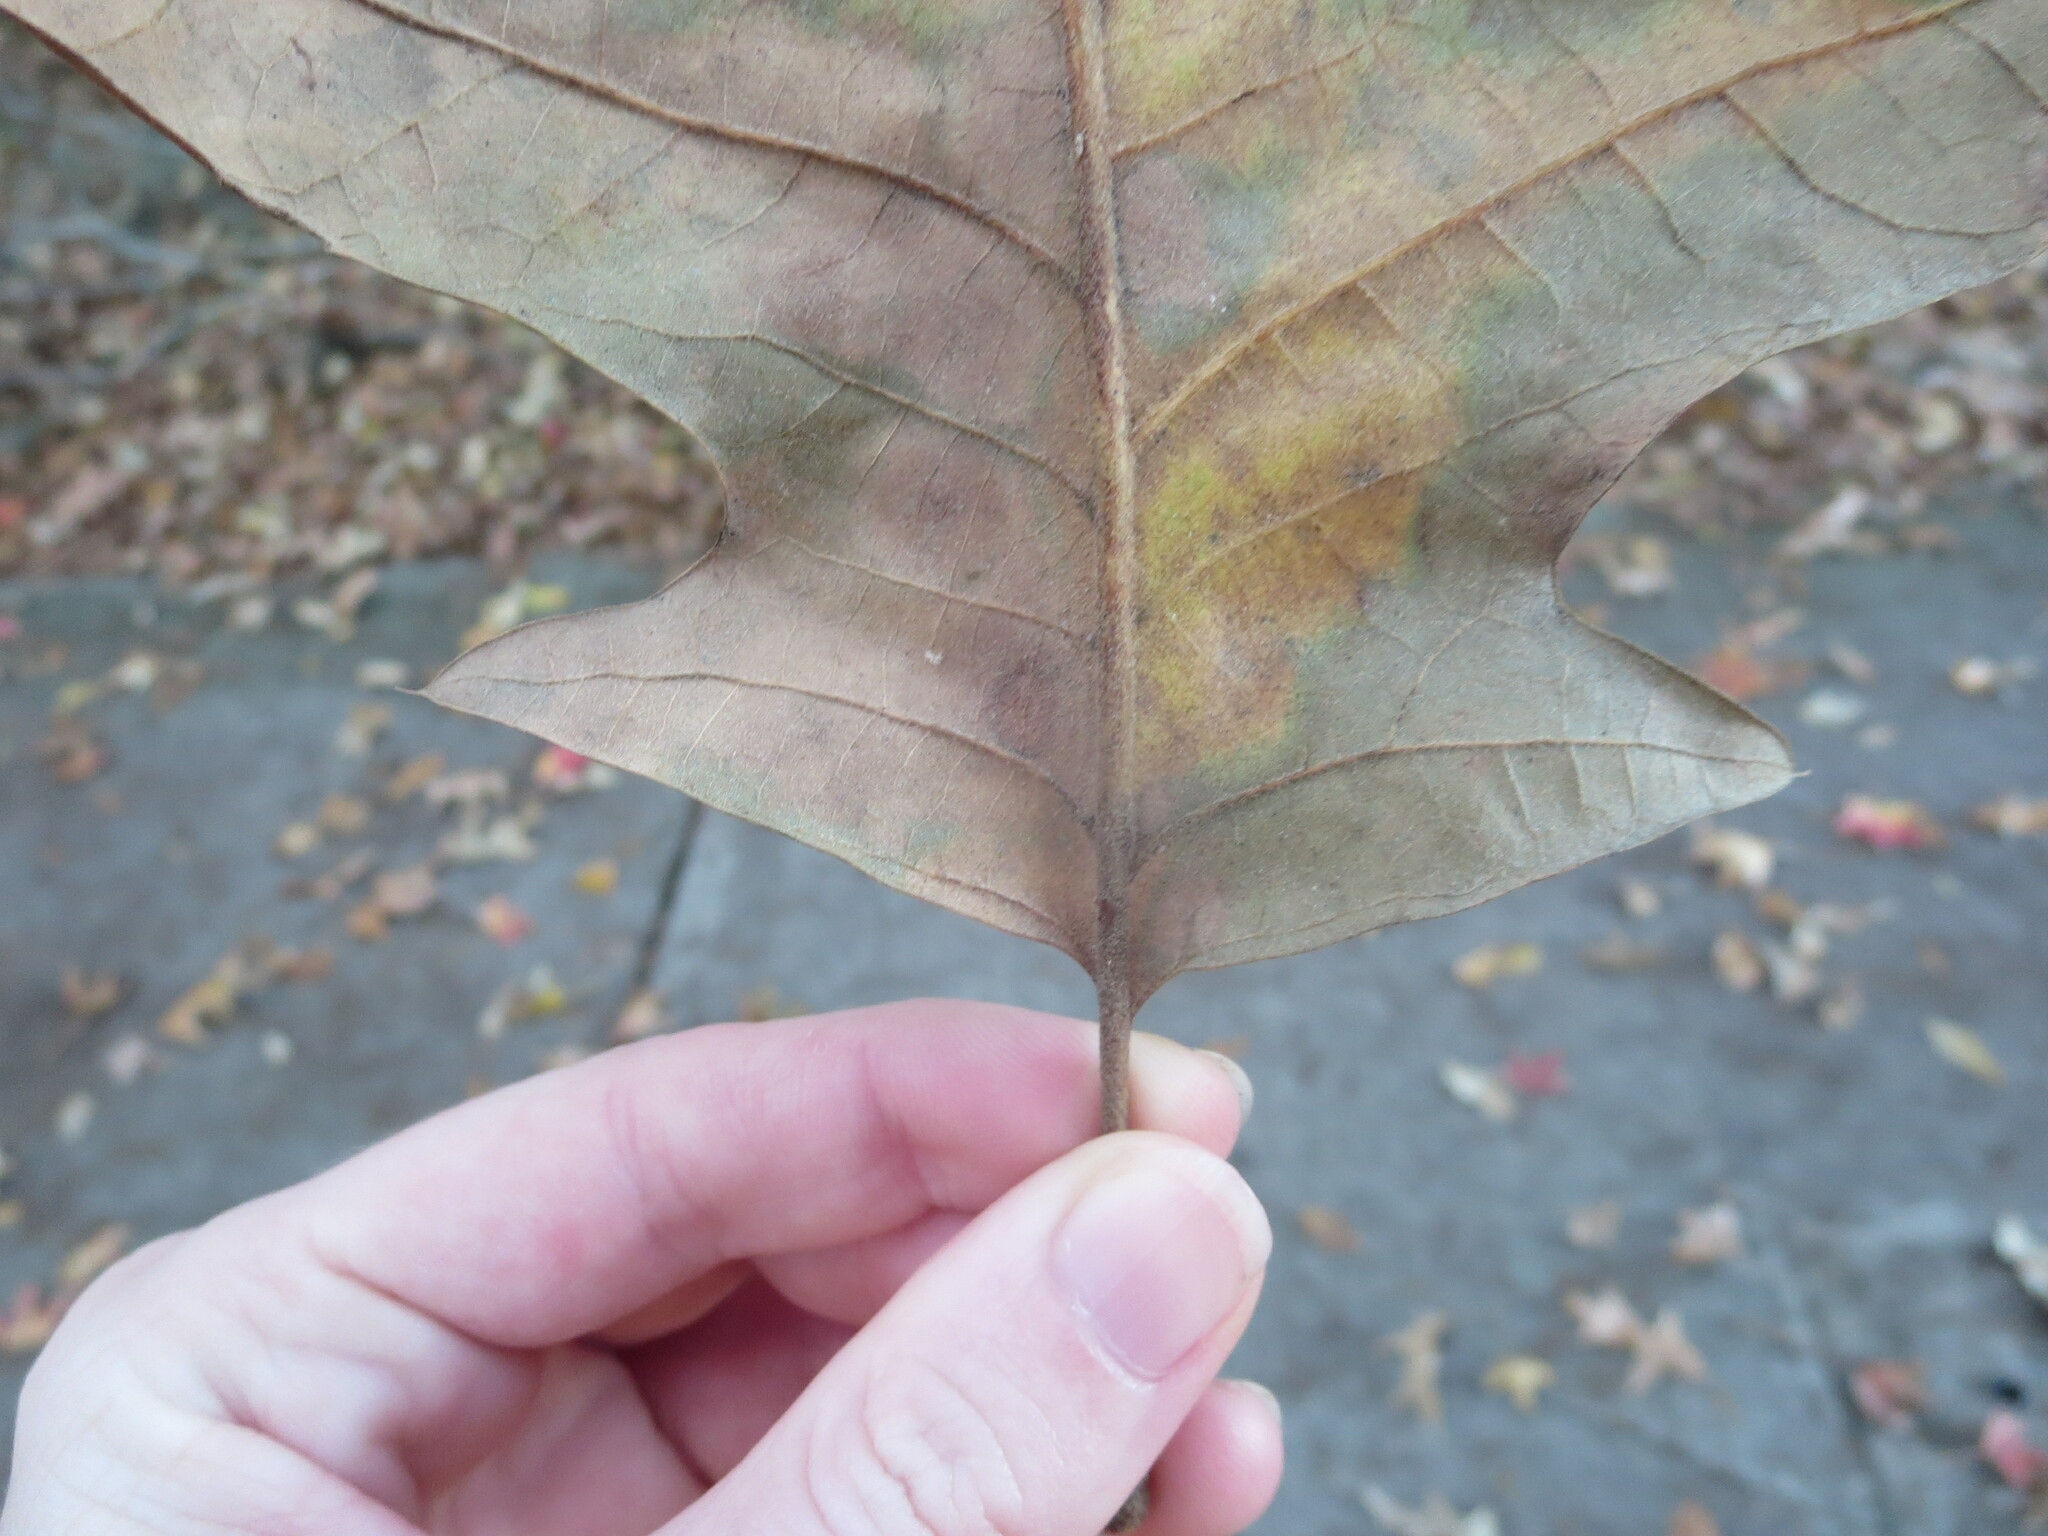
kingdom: Plantae
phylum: Tracheophyta
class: Magnoliopsida
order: Fagales
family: Fagaceae
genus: Quercus
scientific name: Quercus pagoda
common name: Cherrybark oak
